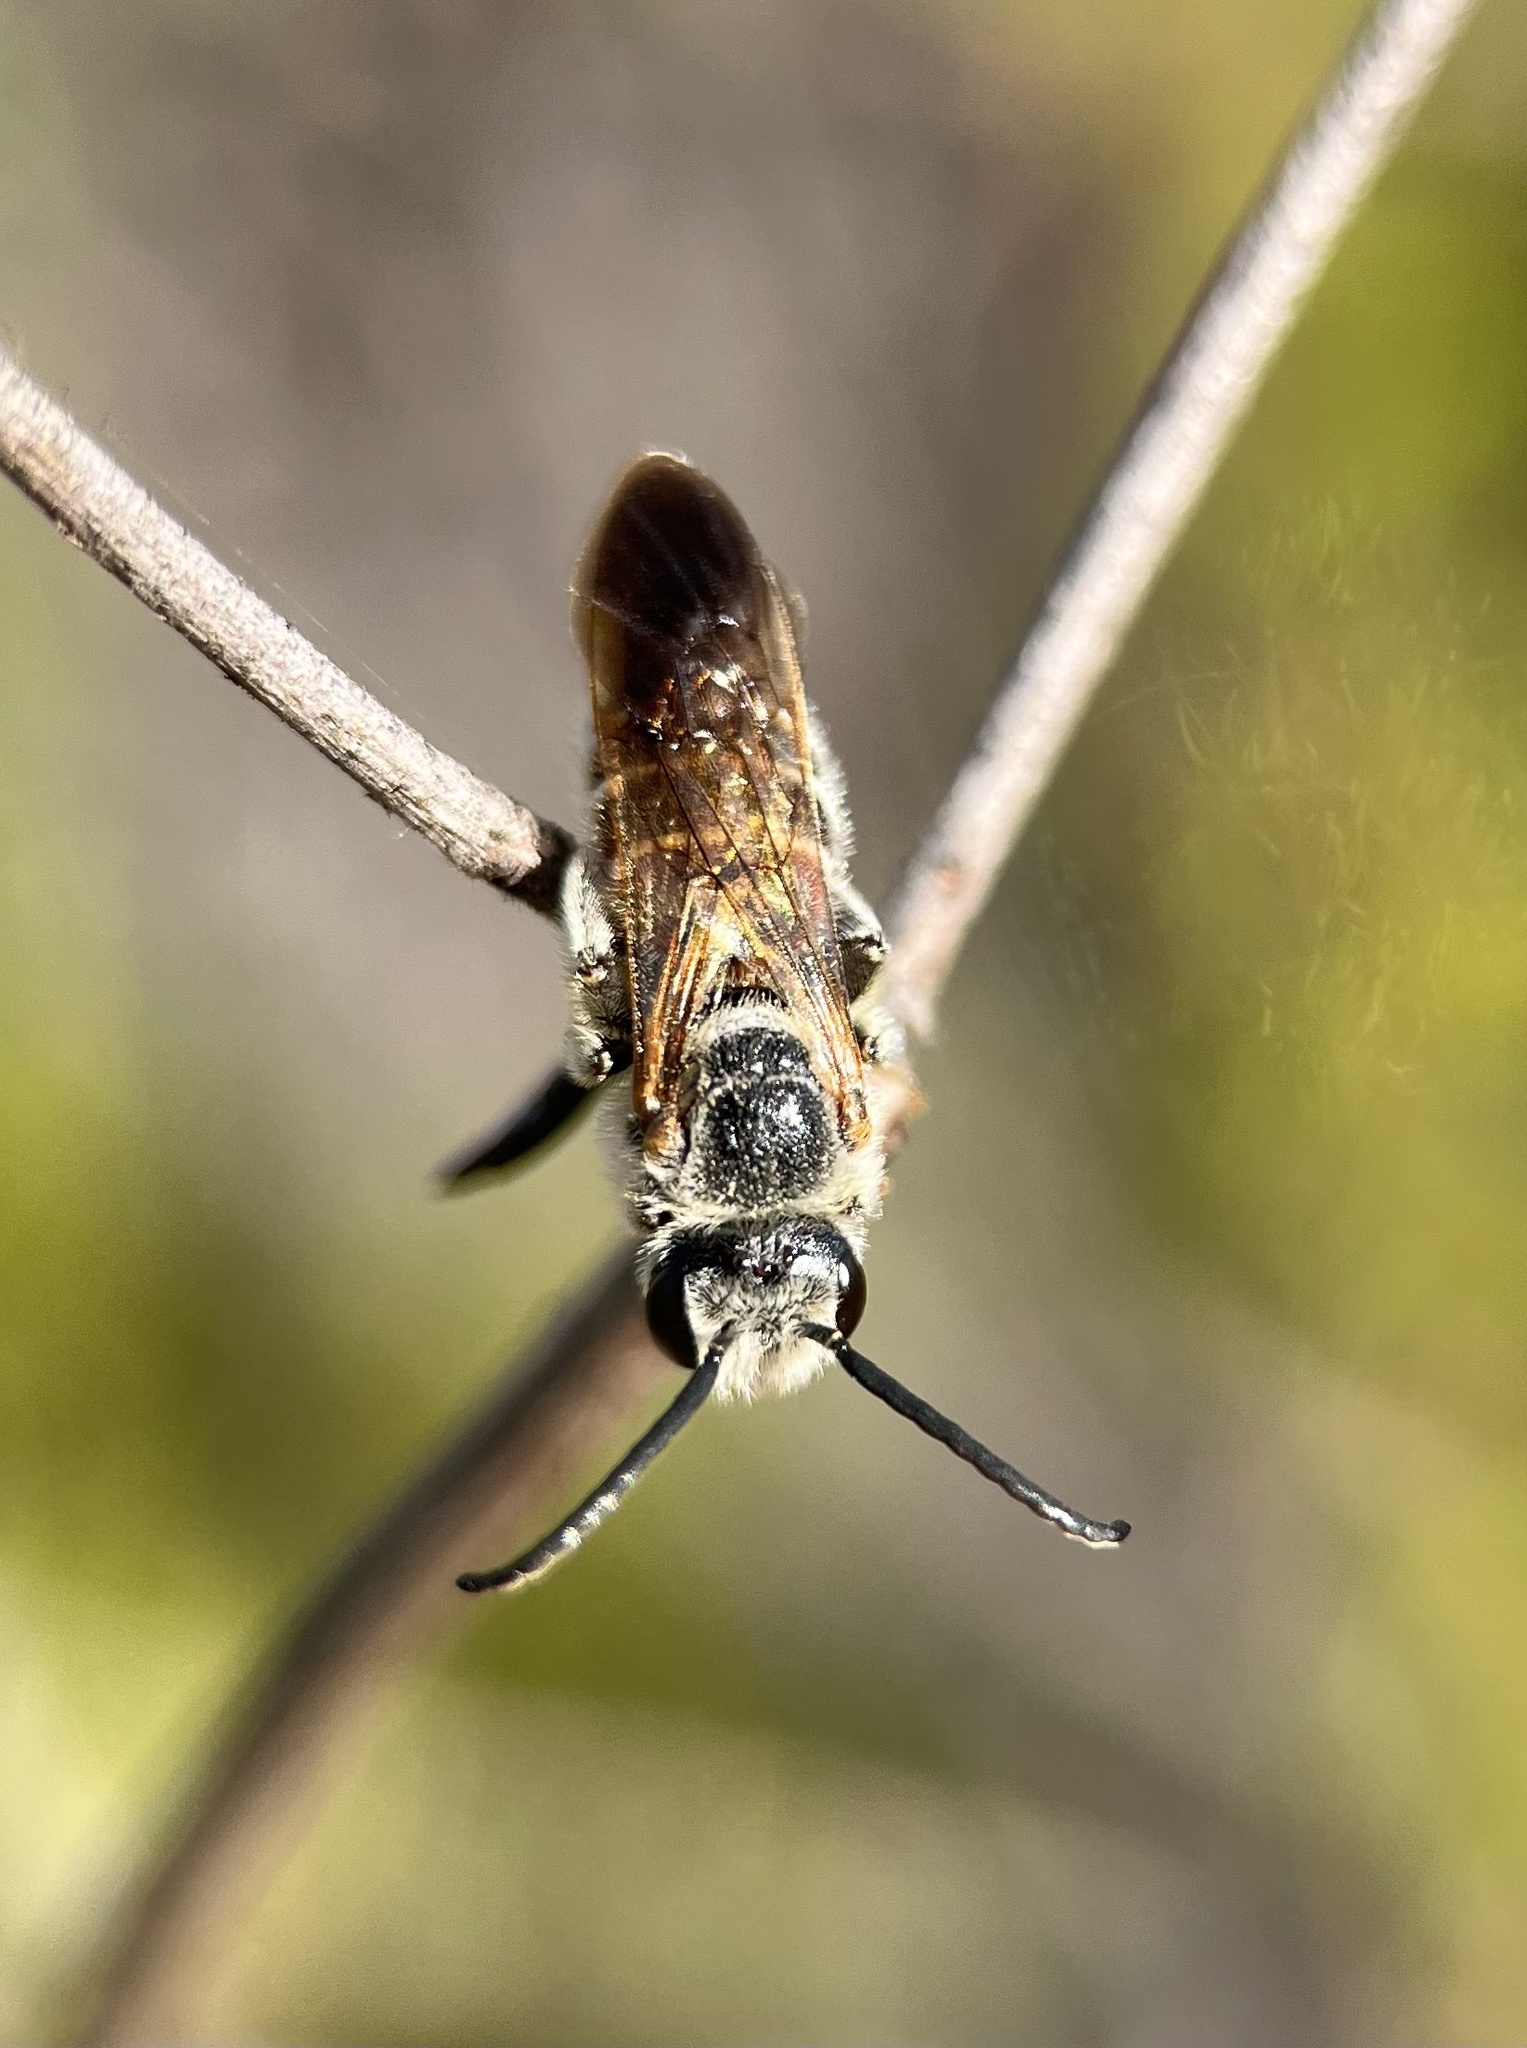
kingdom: Animalia
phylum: Arthropoda
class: Insecta
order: Hymenoptera
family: Halictidae
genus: Dieunomia
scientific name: Dieunomia nevadensis
